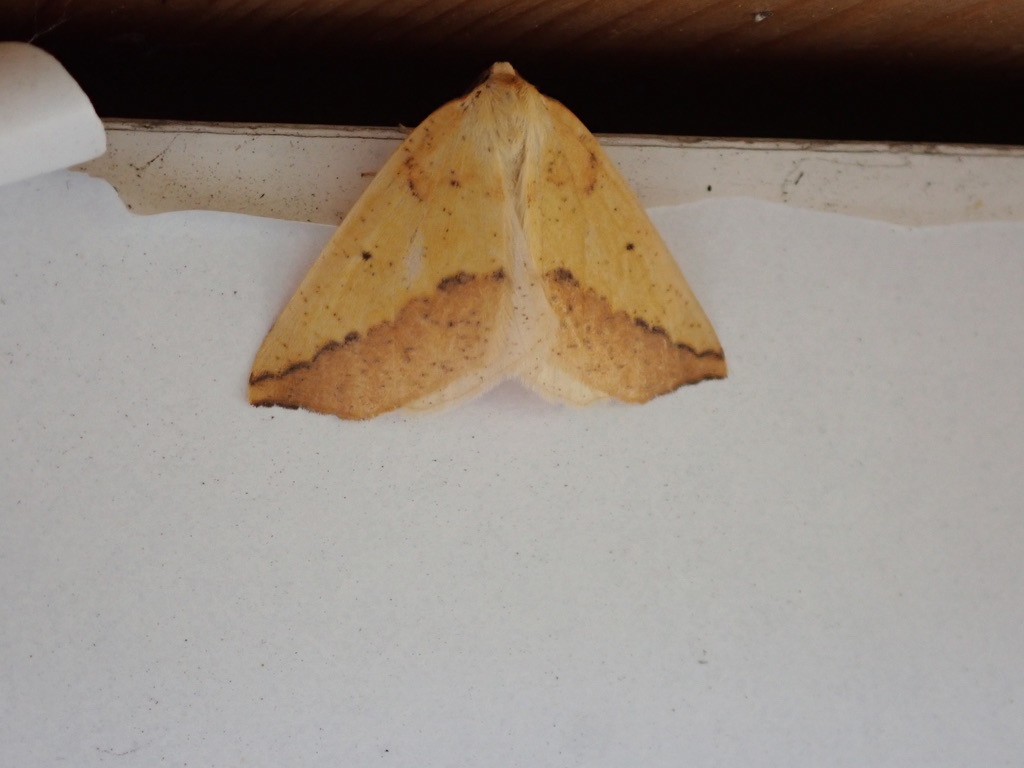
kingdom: Animalia
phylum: Arthropoda
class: Insecta
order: Lepidoptera
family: Geometridae
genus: Neoterpes
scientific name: Neoterpes edwardsata
